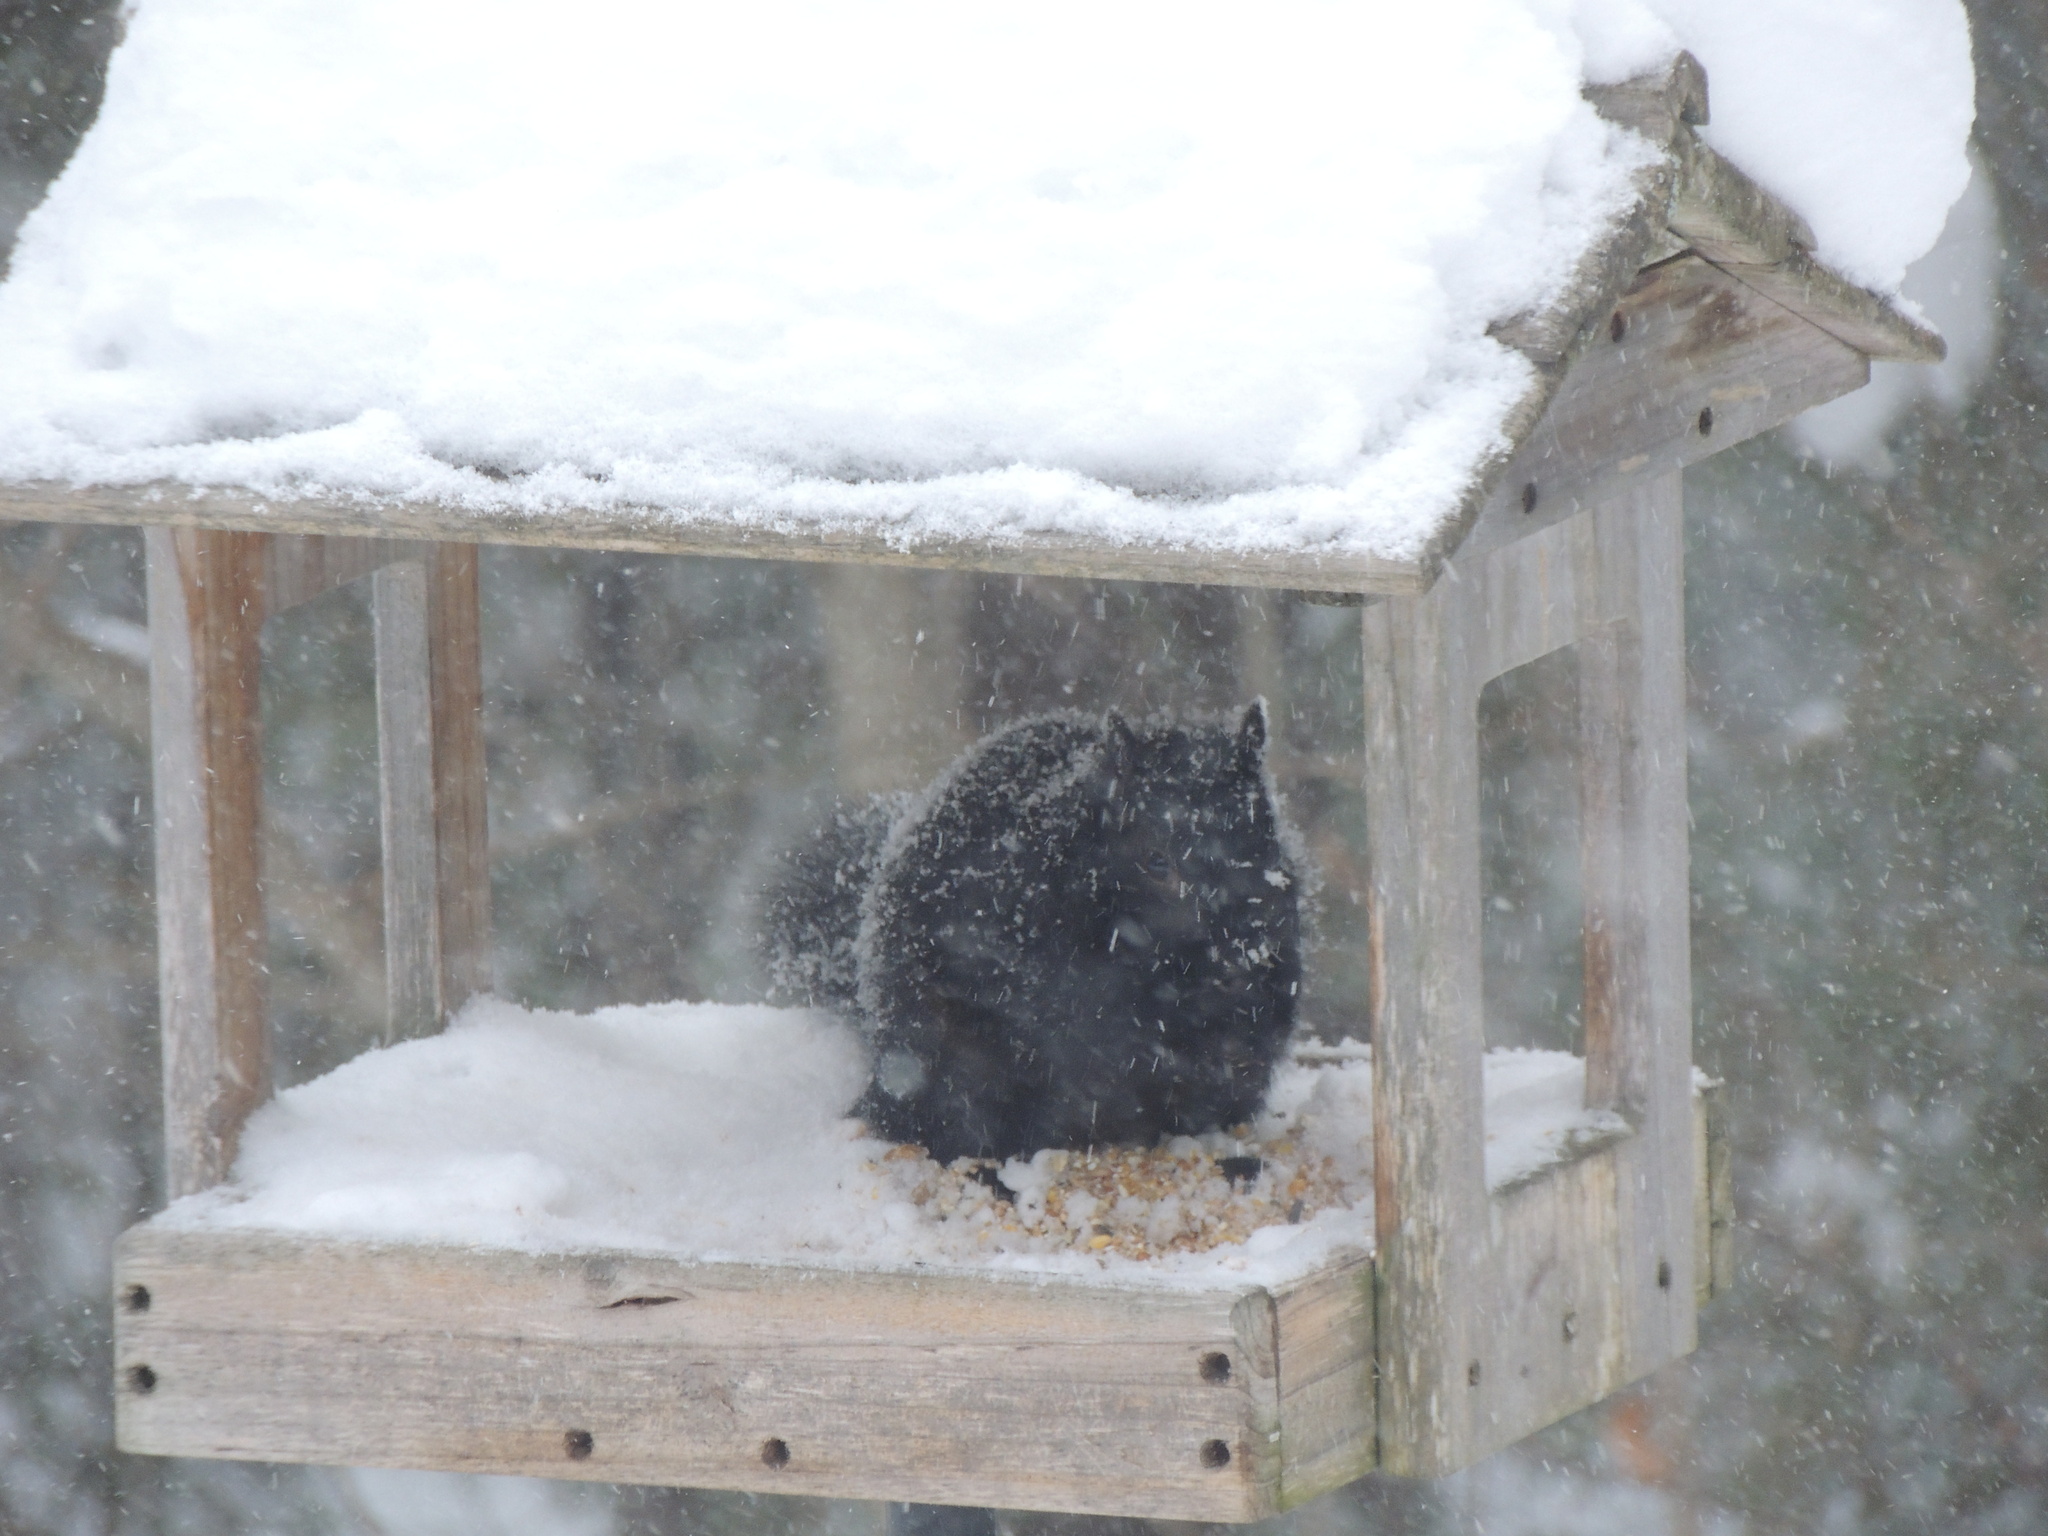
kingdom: Animalia
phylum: Chordata
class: Mammalia
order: Rodentia
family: Sciuridae
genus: Sciurus
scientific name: Sciurus carolinensis
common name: Eastern gray squirrel
